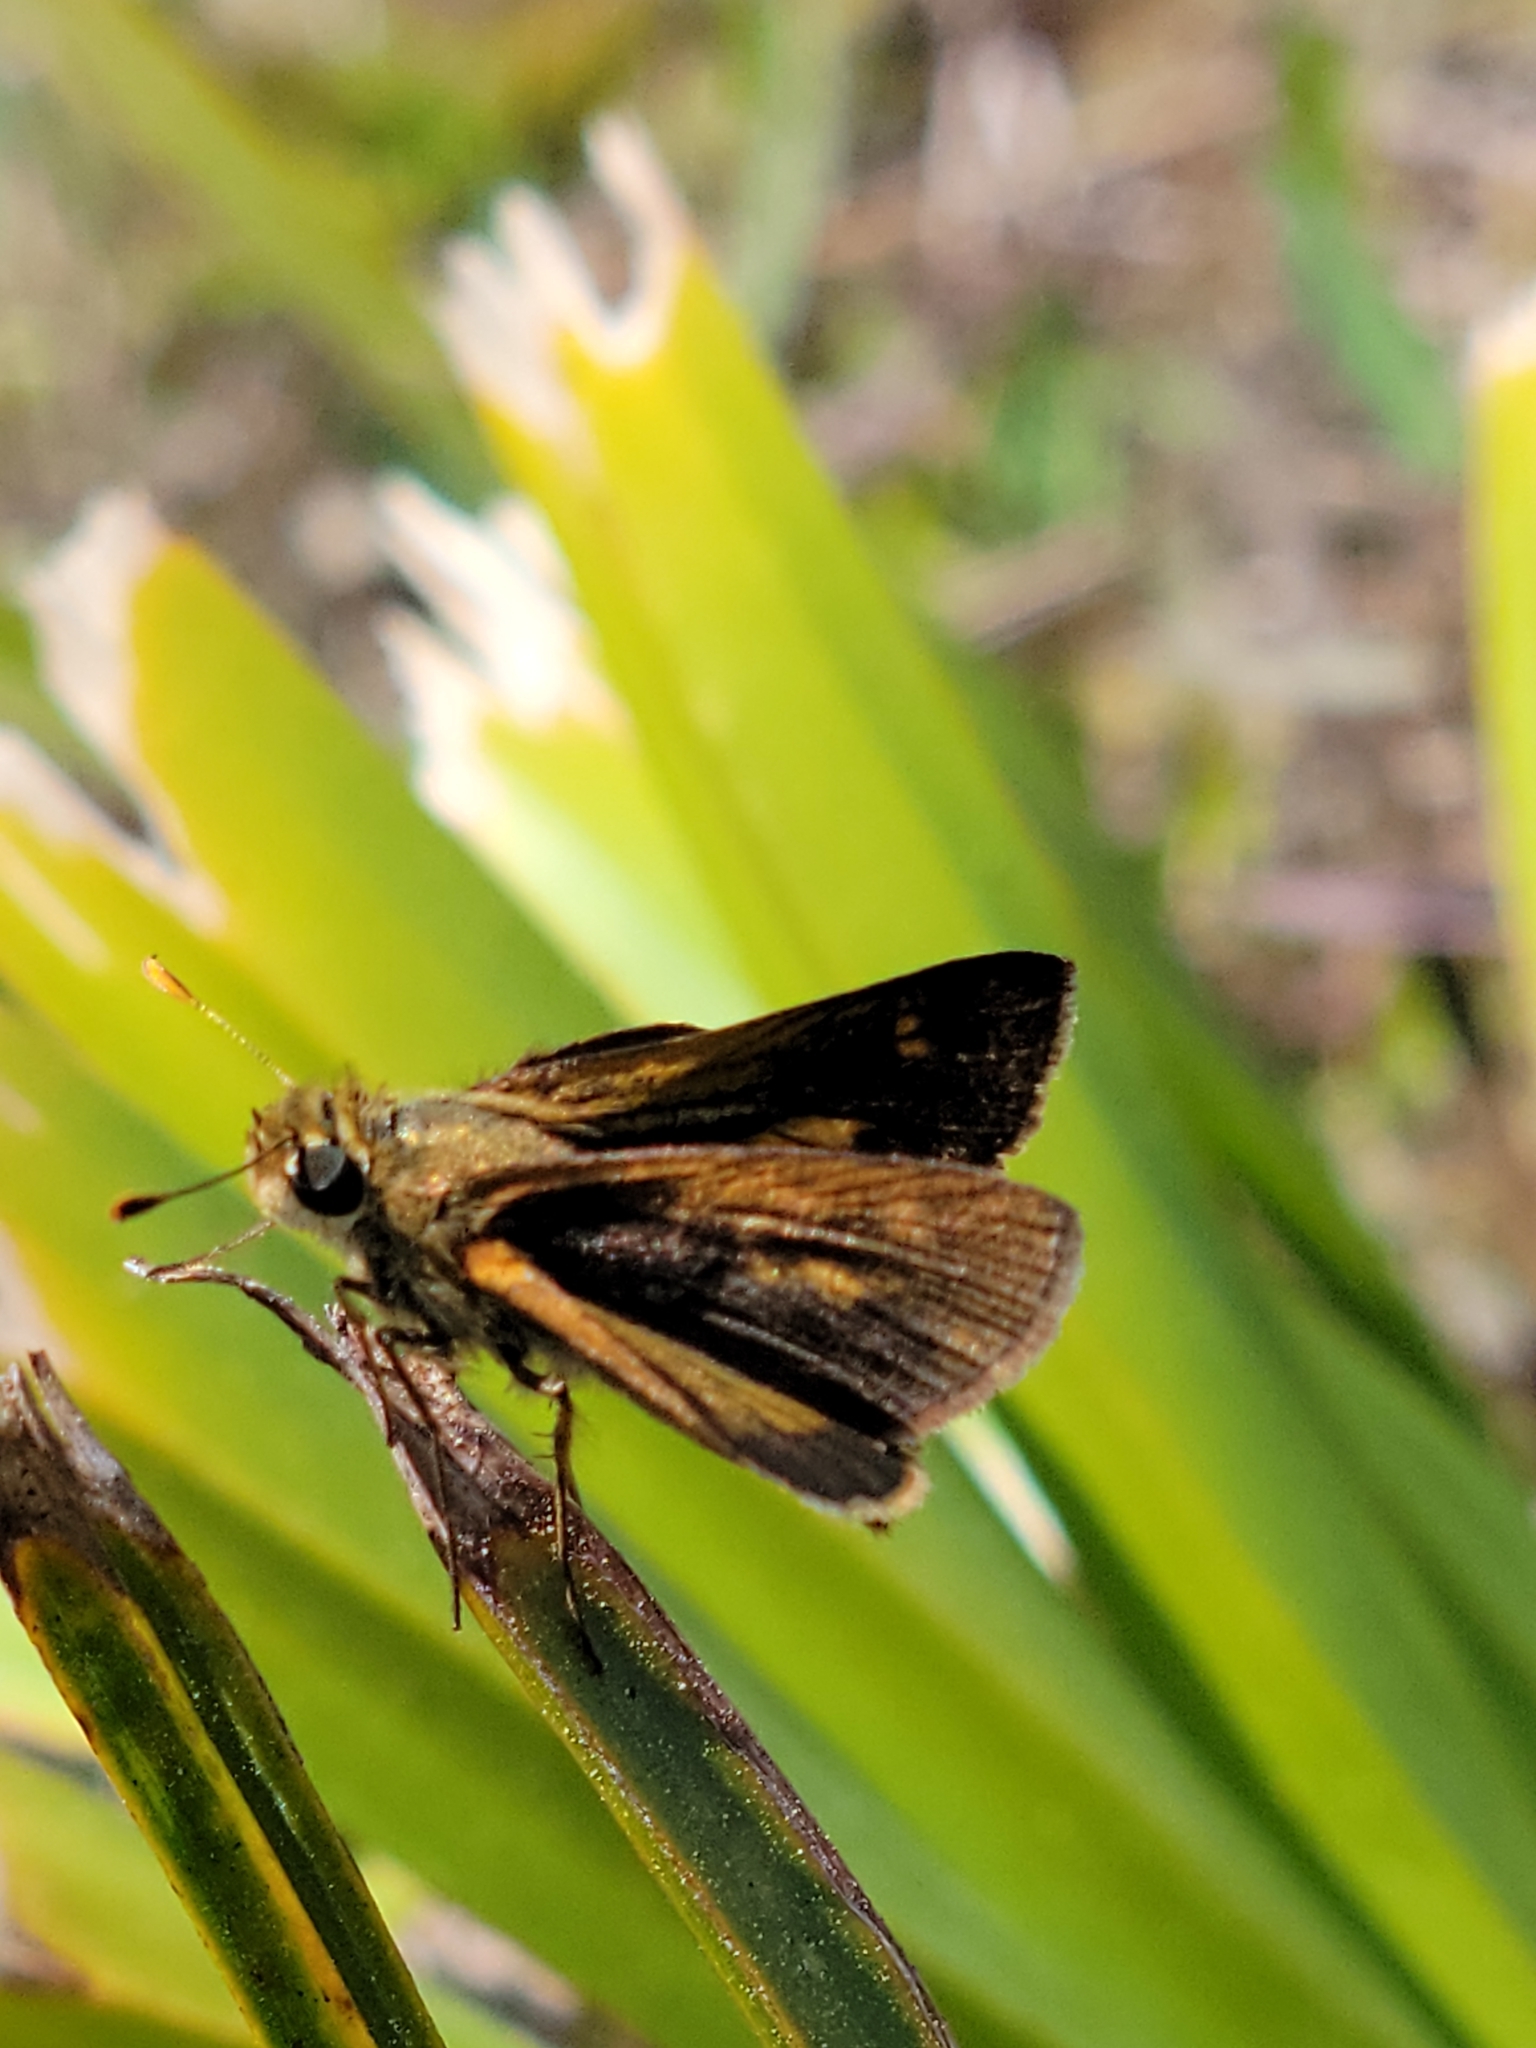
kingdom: Animalia
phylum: Arthropoda
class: Insecta
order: Lepidoptera
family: Hesperiidae
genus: Polites
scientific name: Polites otho
